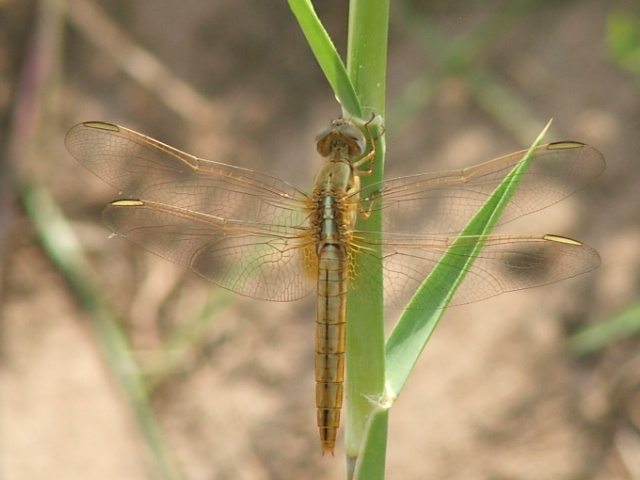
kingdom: Animalia
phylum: Arthropoda
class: Insecta
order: Odonata
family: Libellulidae
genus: Crocothemis
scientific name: Crocothemis erythraea
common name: Scarlet dragonfly
